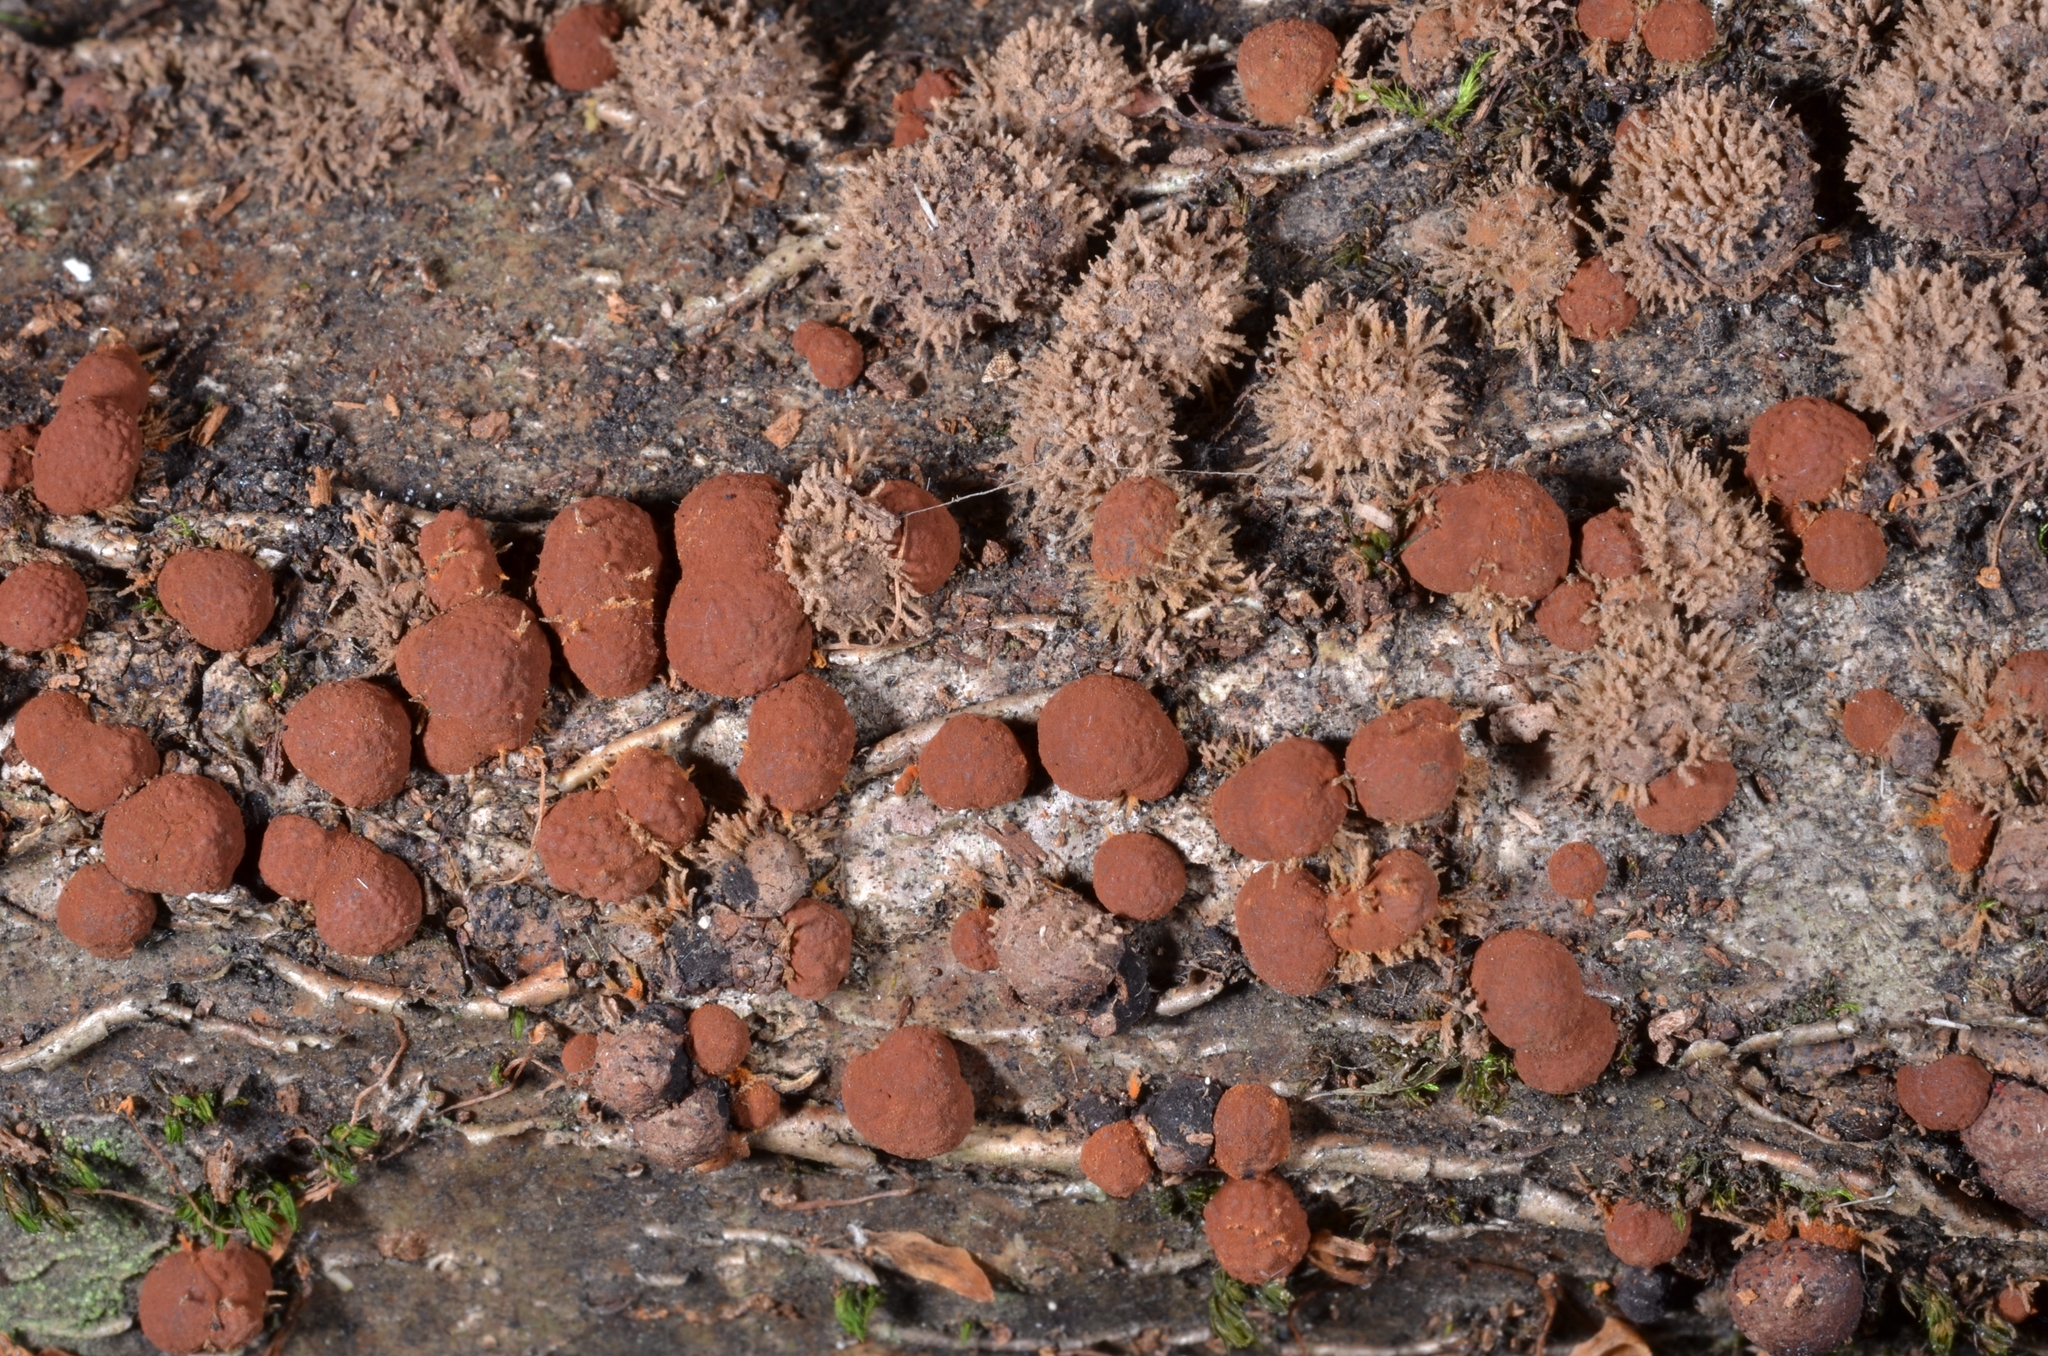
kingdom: Fungi
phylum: Ascomycota
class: Sordariomycetes
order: Xylariales
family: Hypoxylaceae
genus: Hypoxylon
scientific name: Hypoxylon howeanum
